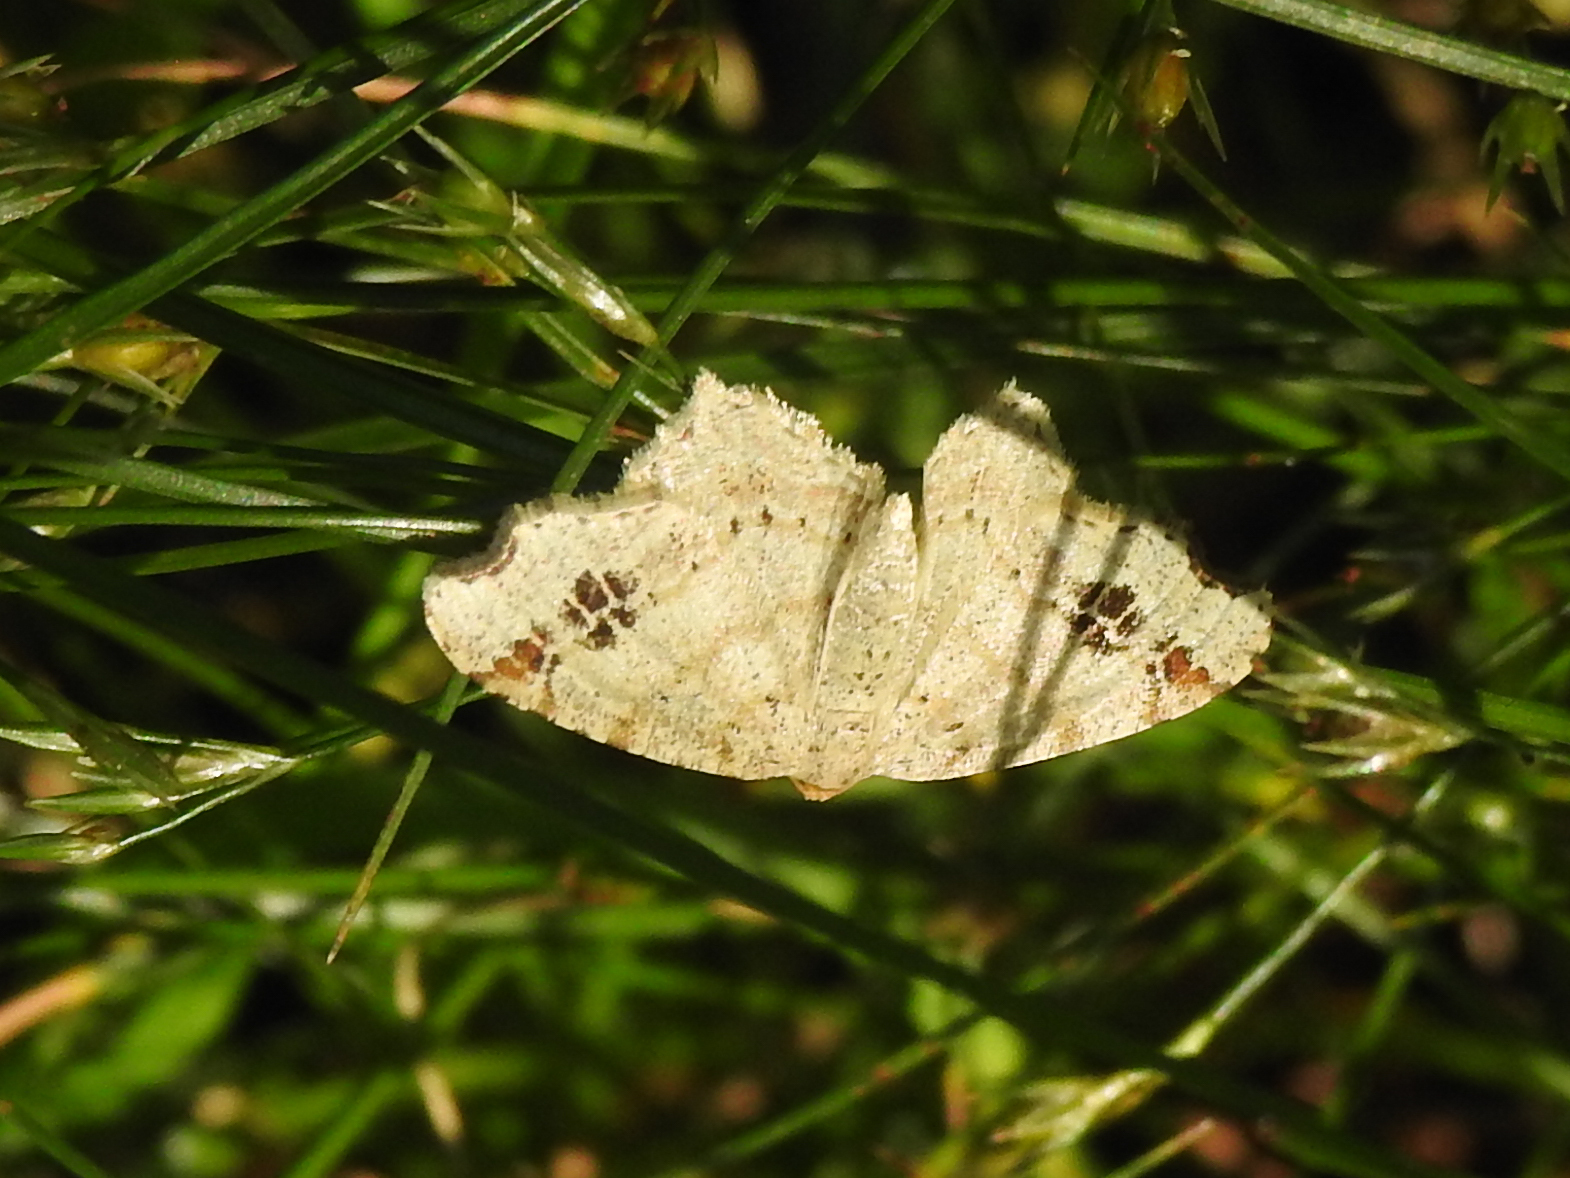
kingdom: Animalia
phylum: Arthropoda
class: Insecta
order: Lepidoptera
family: Geometridae
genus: Macaria
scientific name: Macaria aemulataria
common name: Common angle
